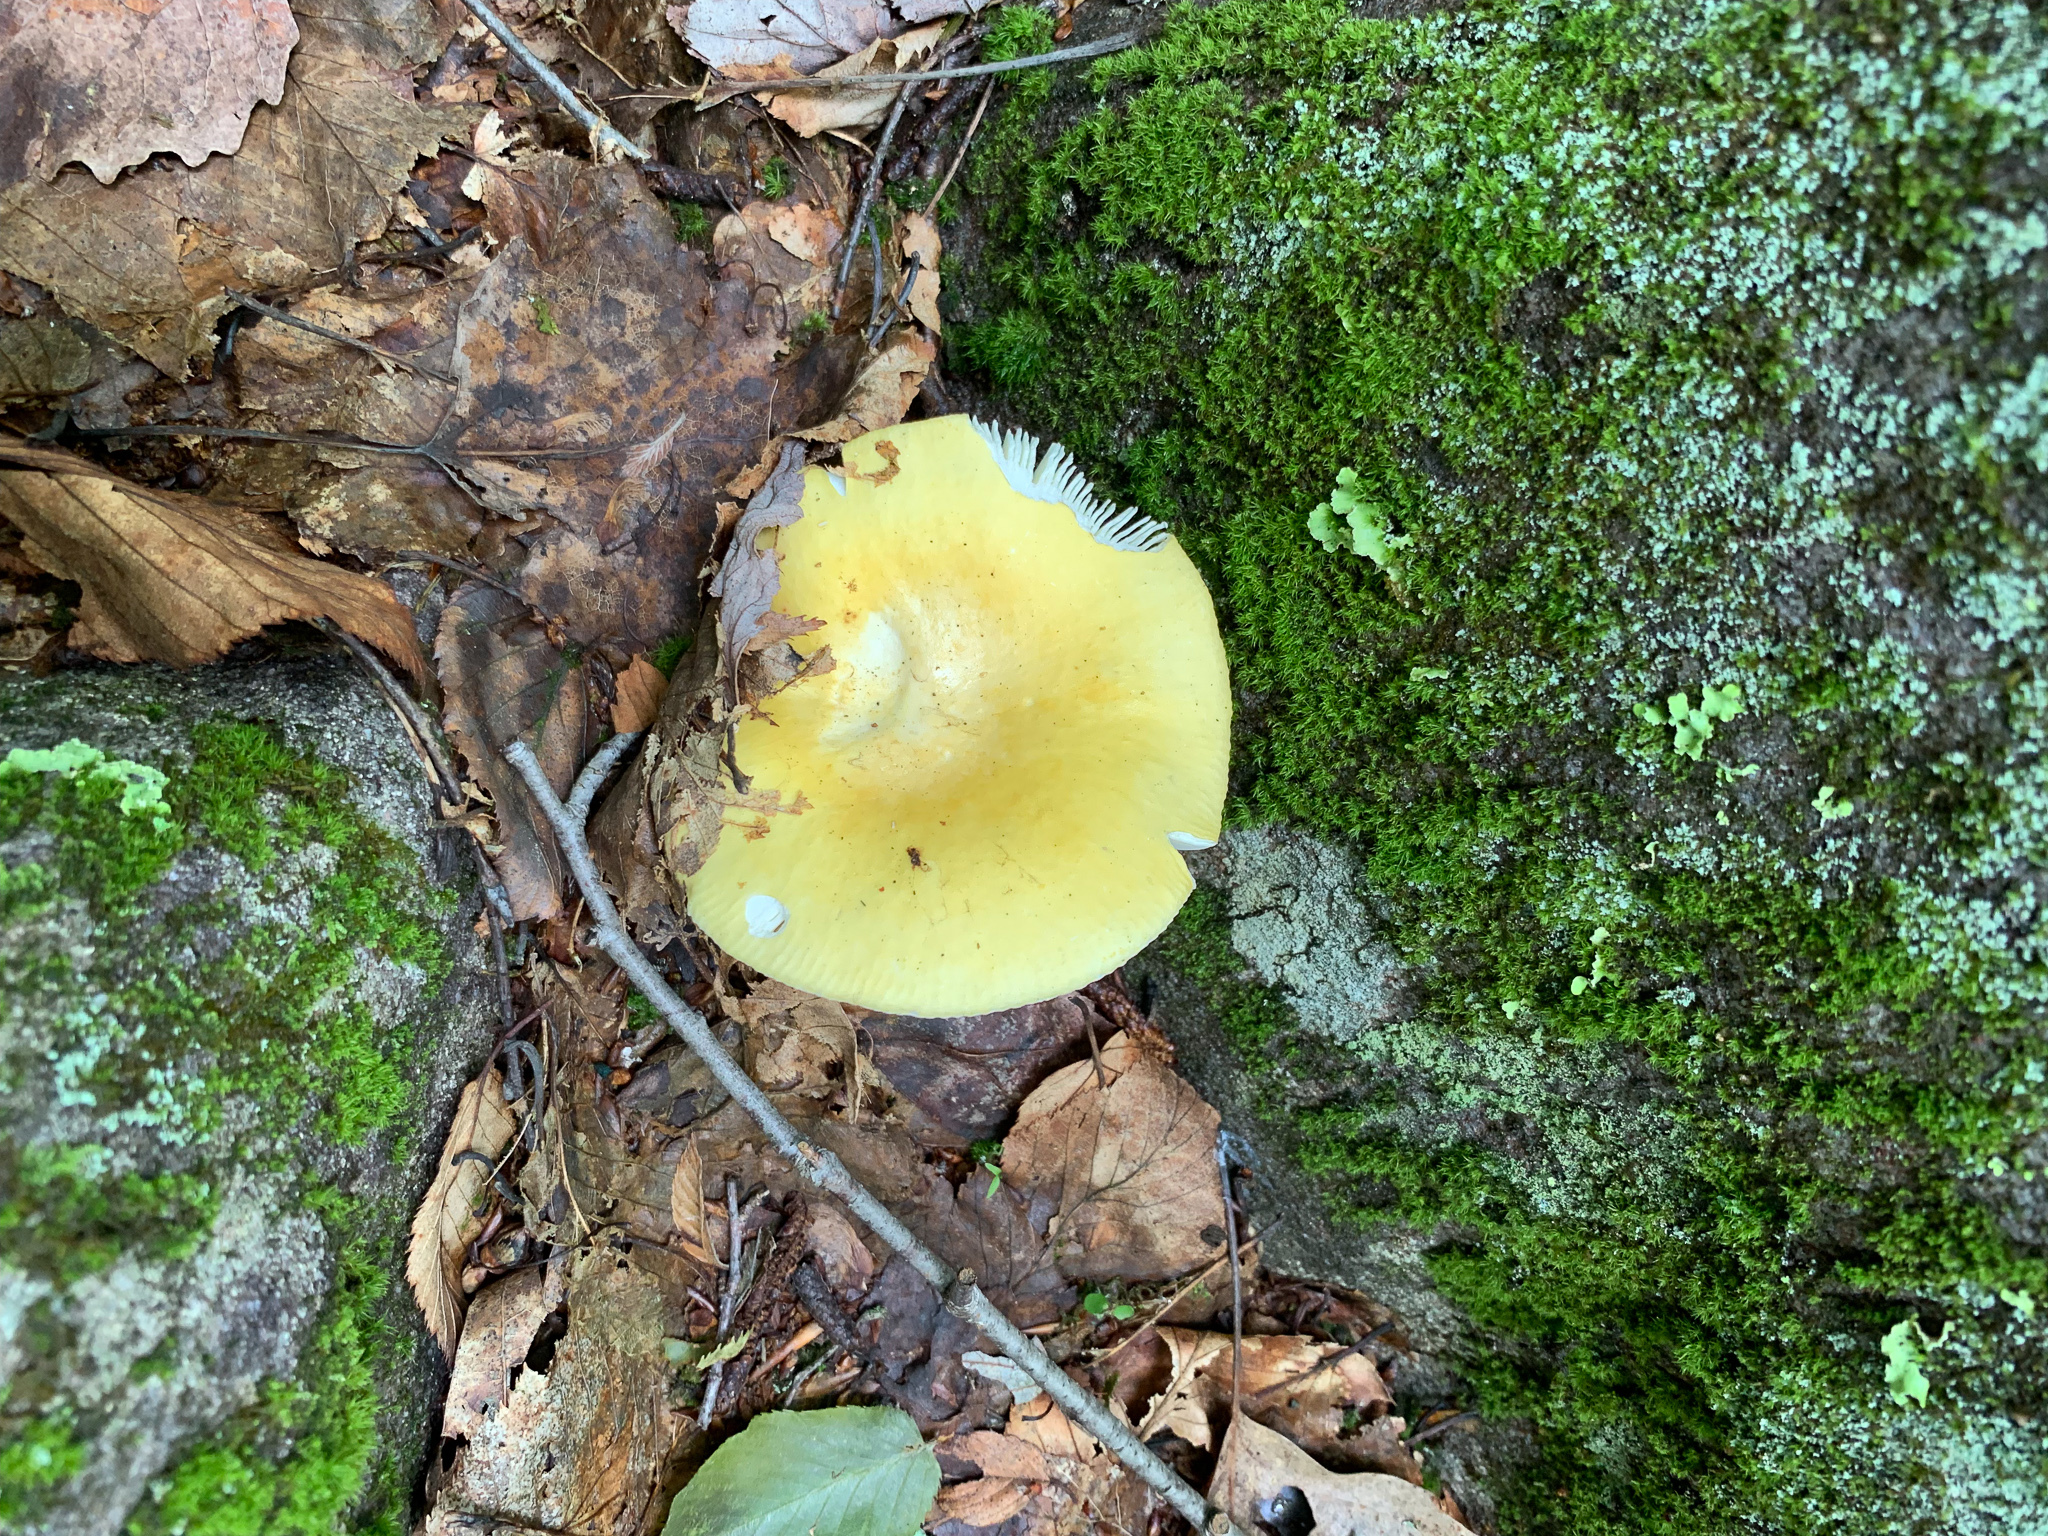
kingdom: Fungi
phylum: Basidiomycota
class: Agaricomycetes
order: Russulales
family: Russulaceae
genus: Russula
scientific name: Russula claroflava
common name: The yellow swamp brittlegill
